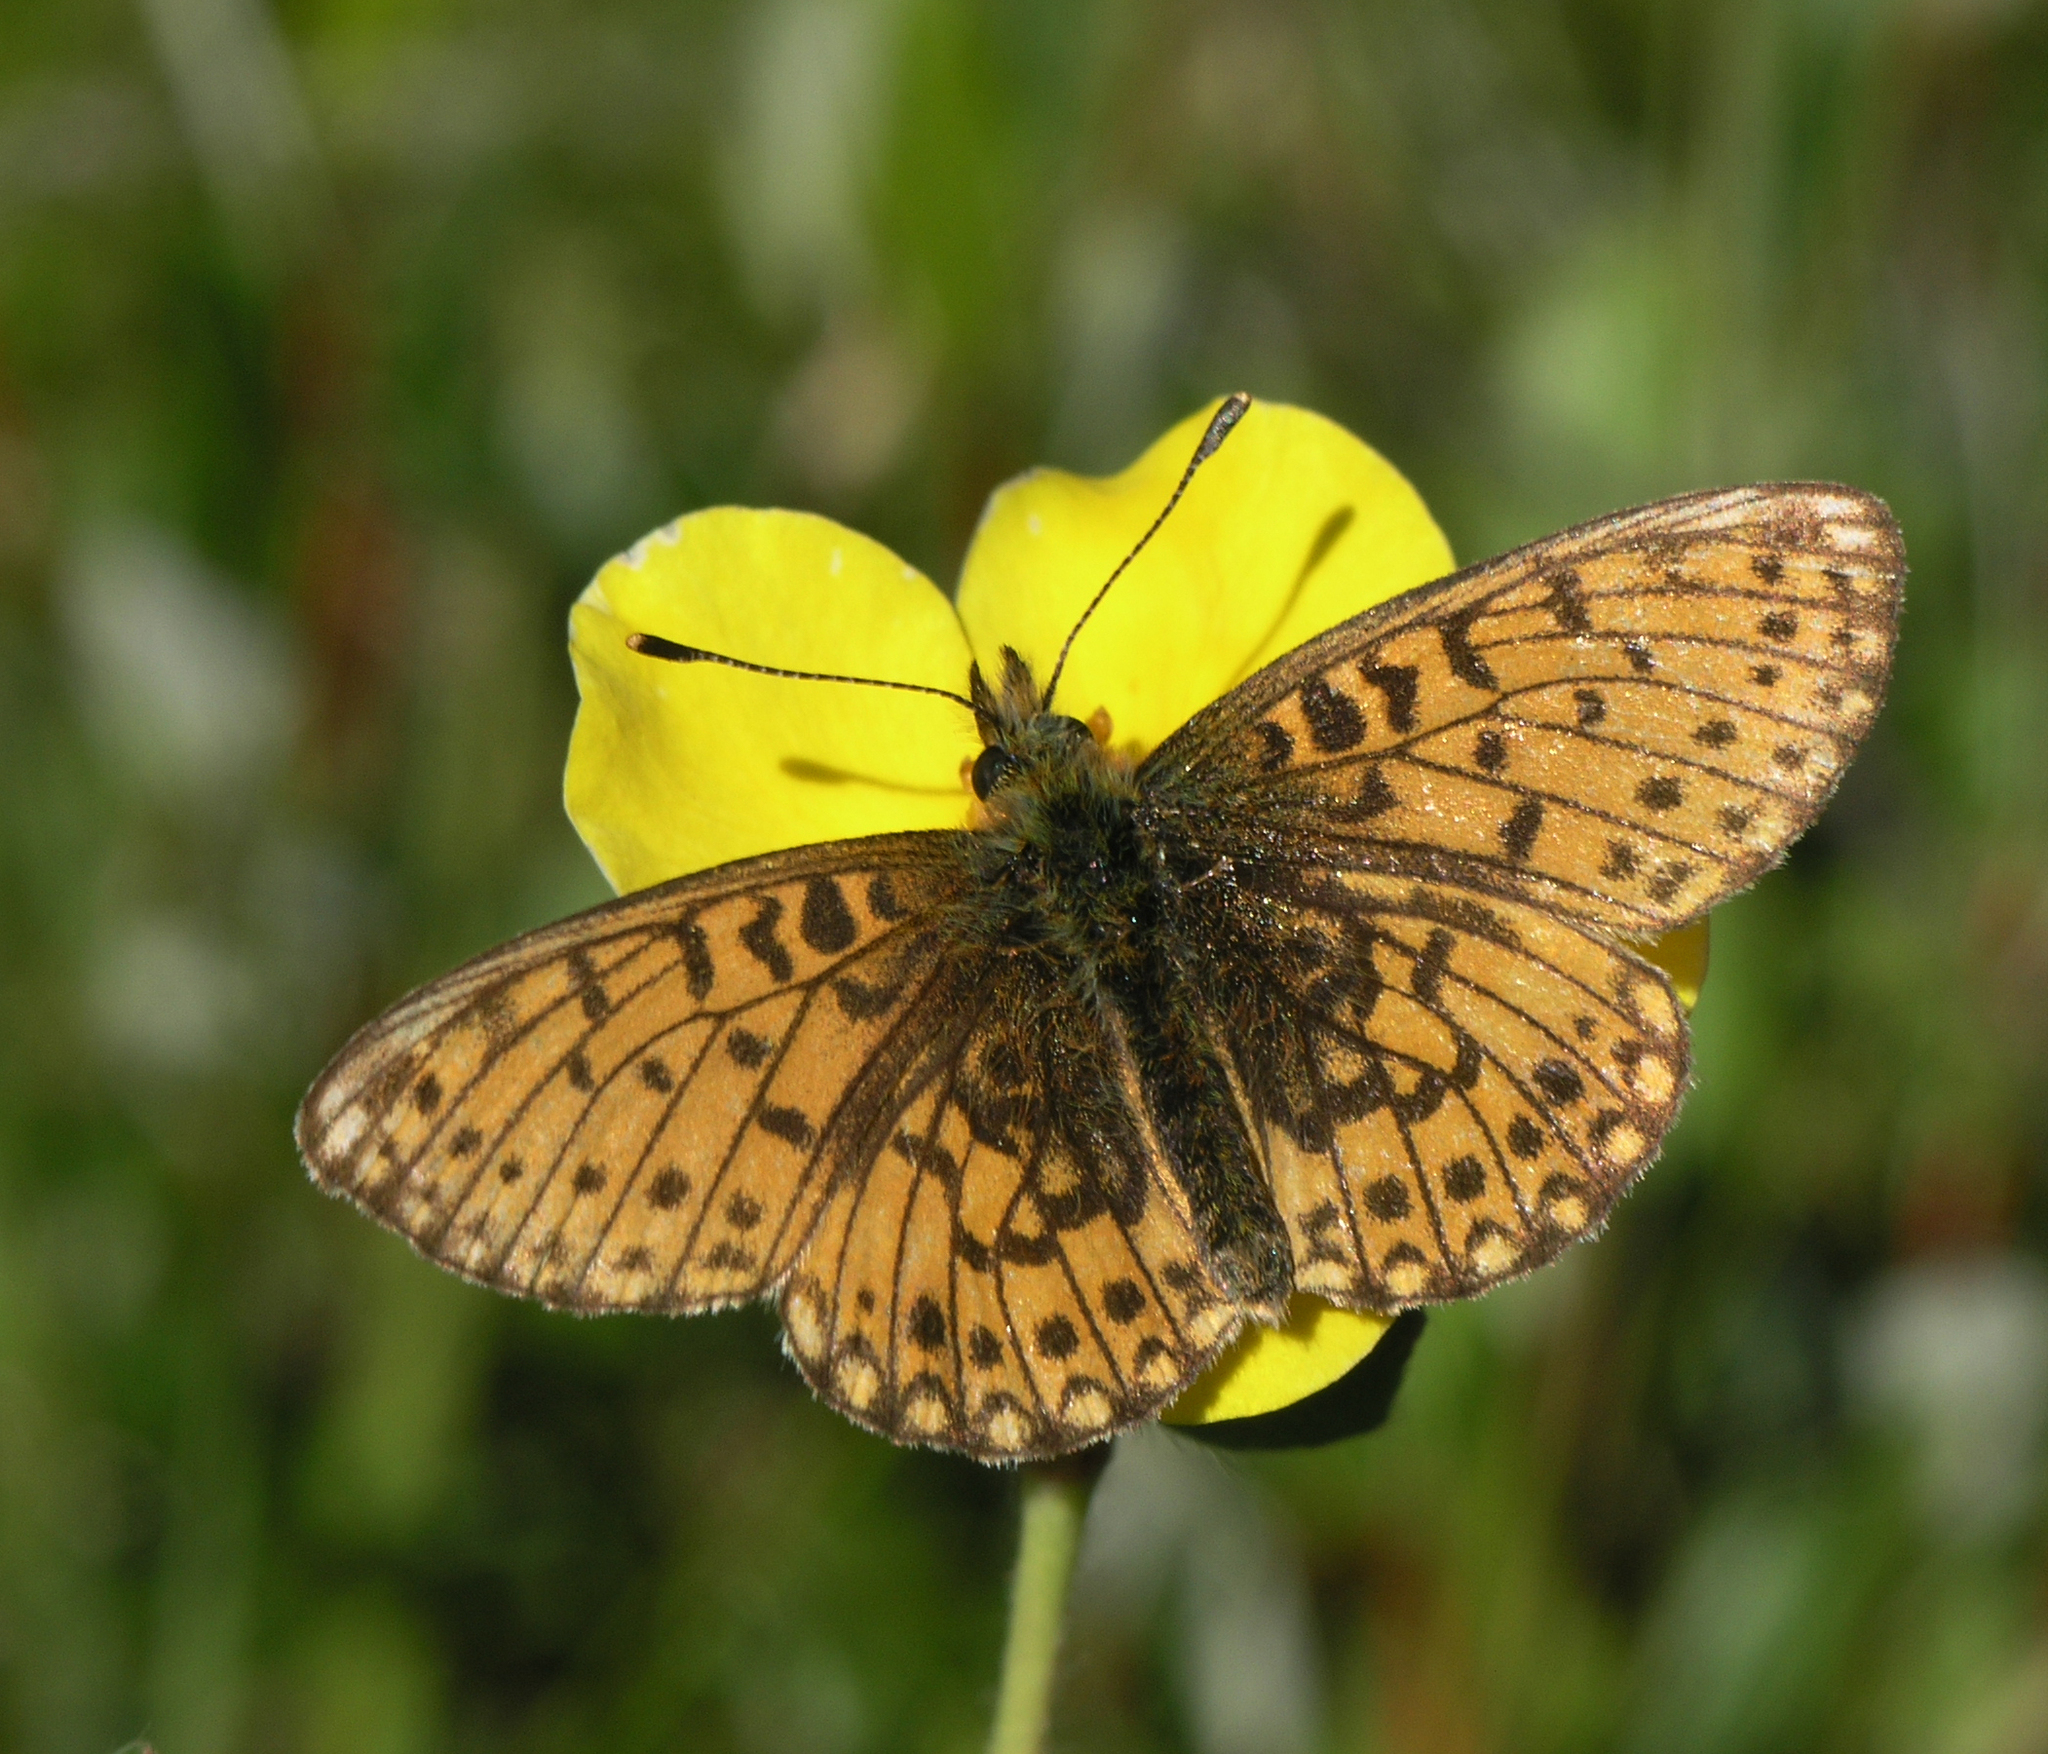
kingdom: Plantae
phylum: Tracheophyta
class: Magnoliopsida
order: Rosales
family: Rosaceae
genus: Dasiphora
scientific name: Dasiphora fruticosa
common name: Shrubby cinquefoil
